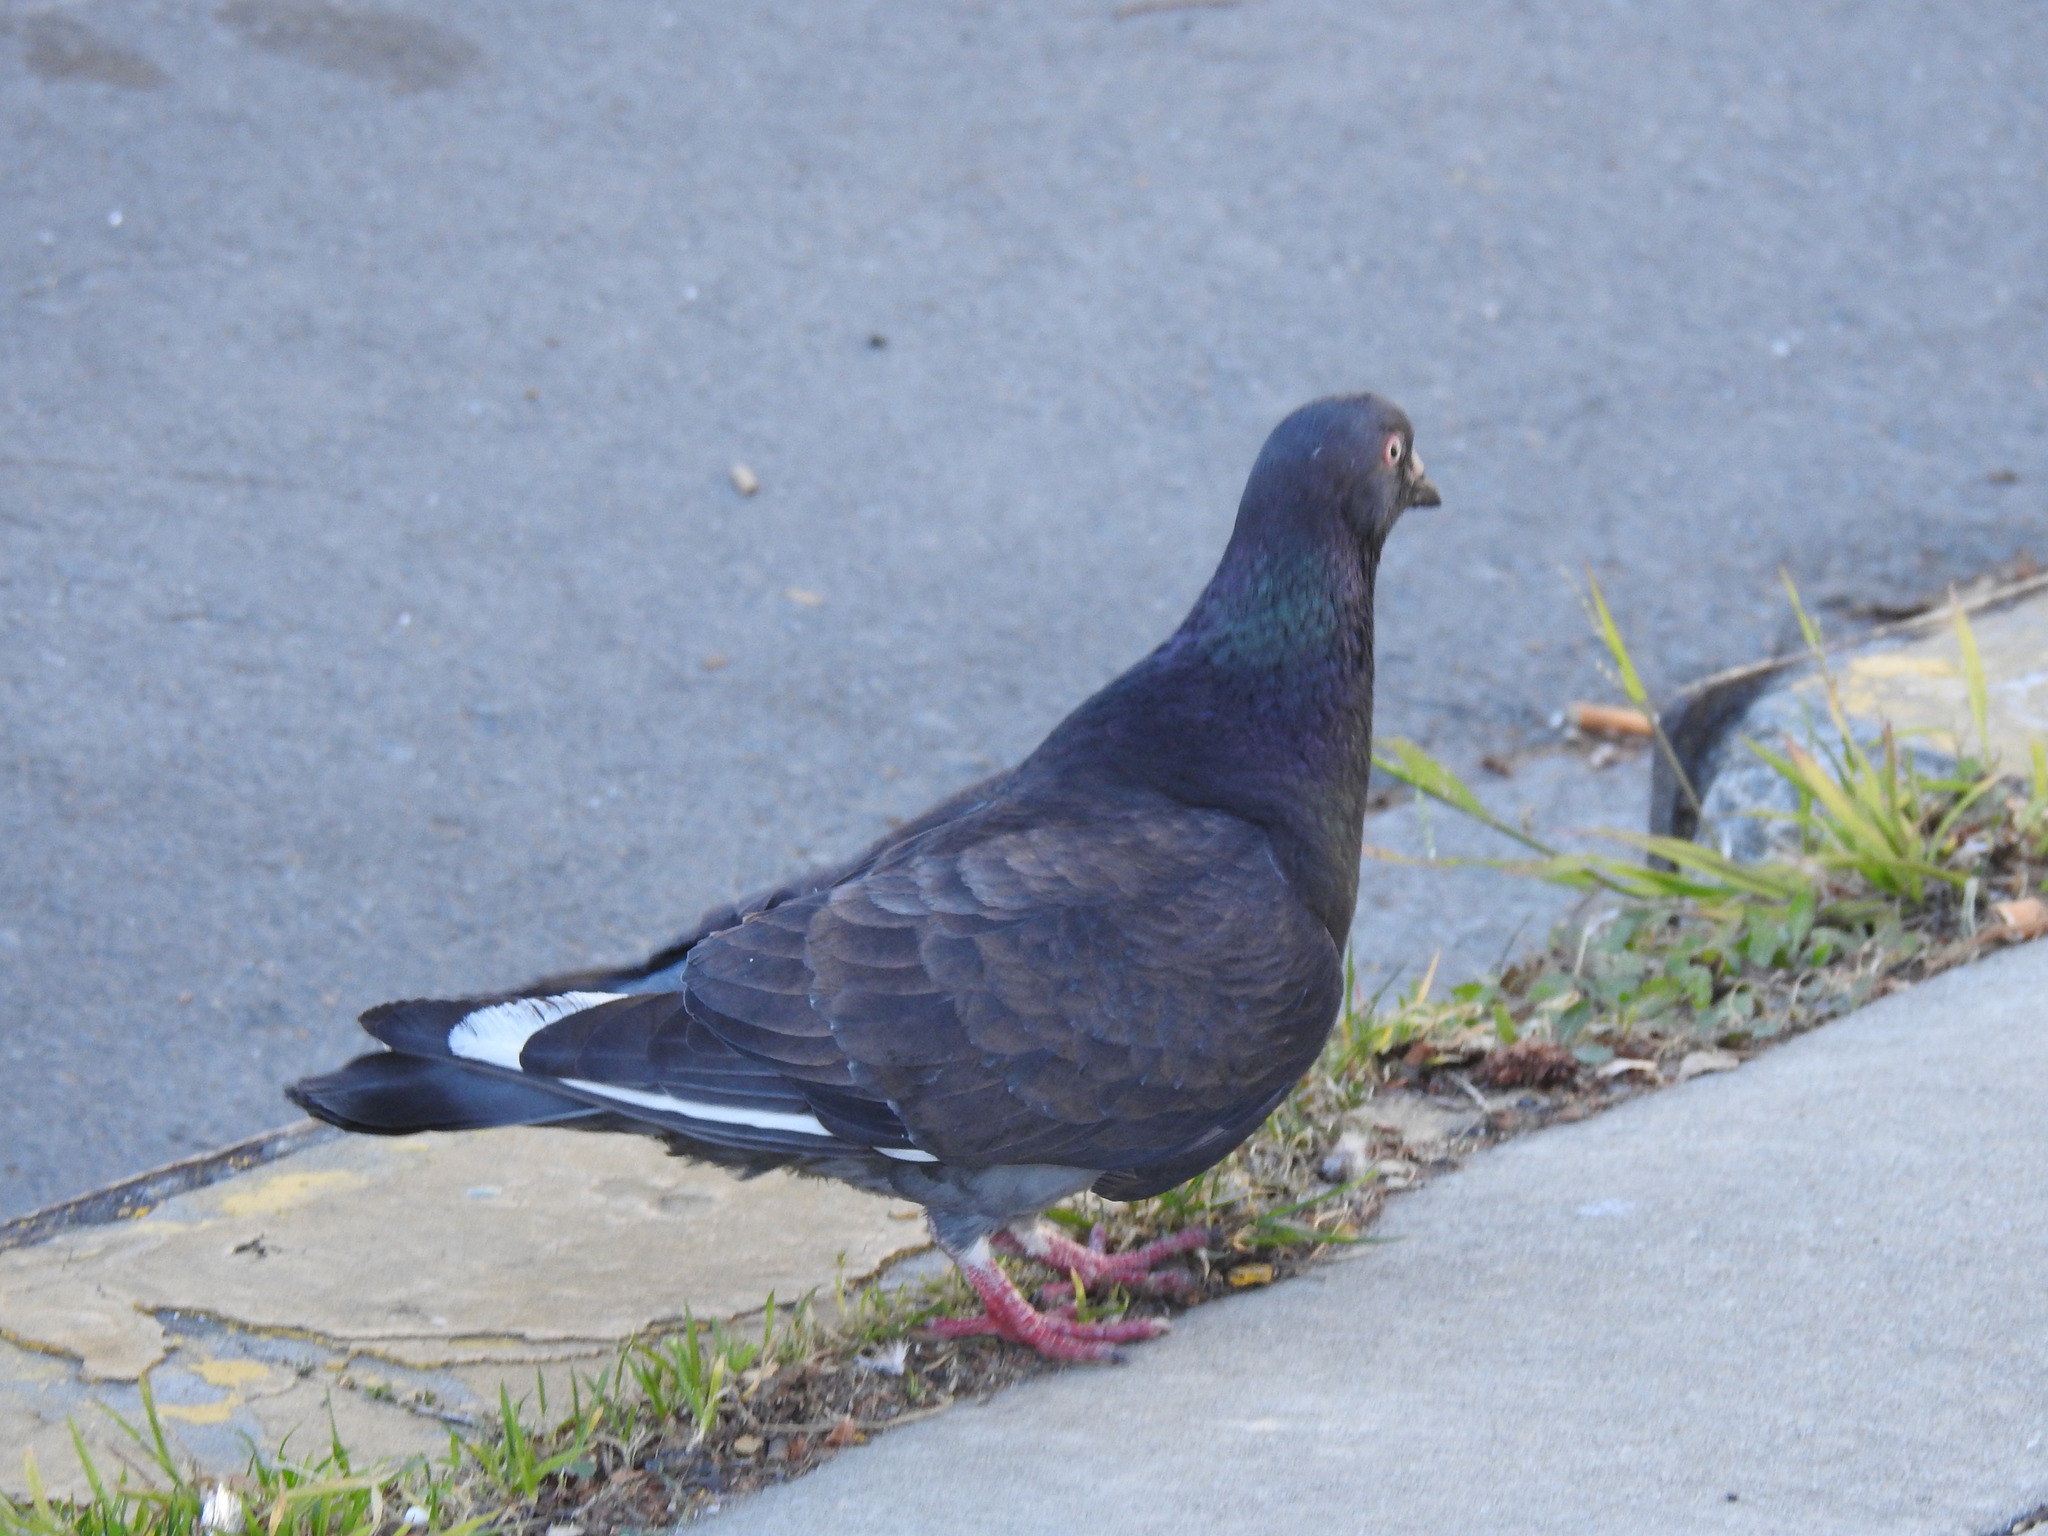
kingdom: Animalia
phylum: Chordata
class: Aves
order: Columbiformes
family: Columbidae
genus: Columba
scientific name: Columba livia
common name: Rock pigeon
